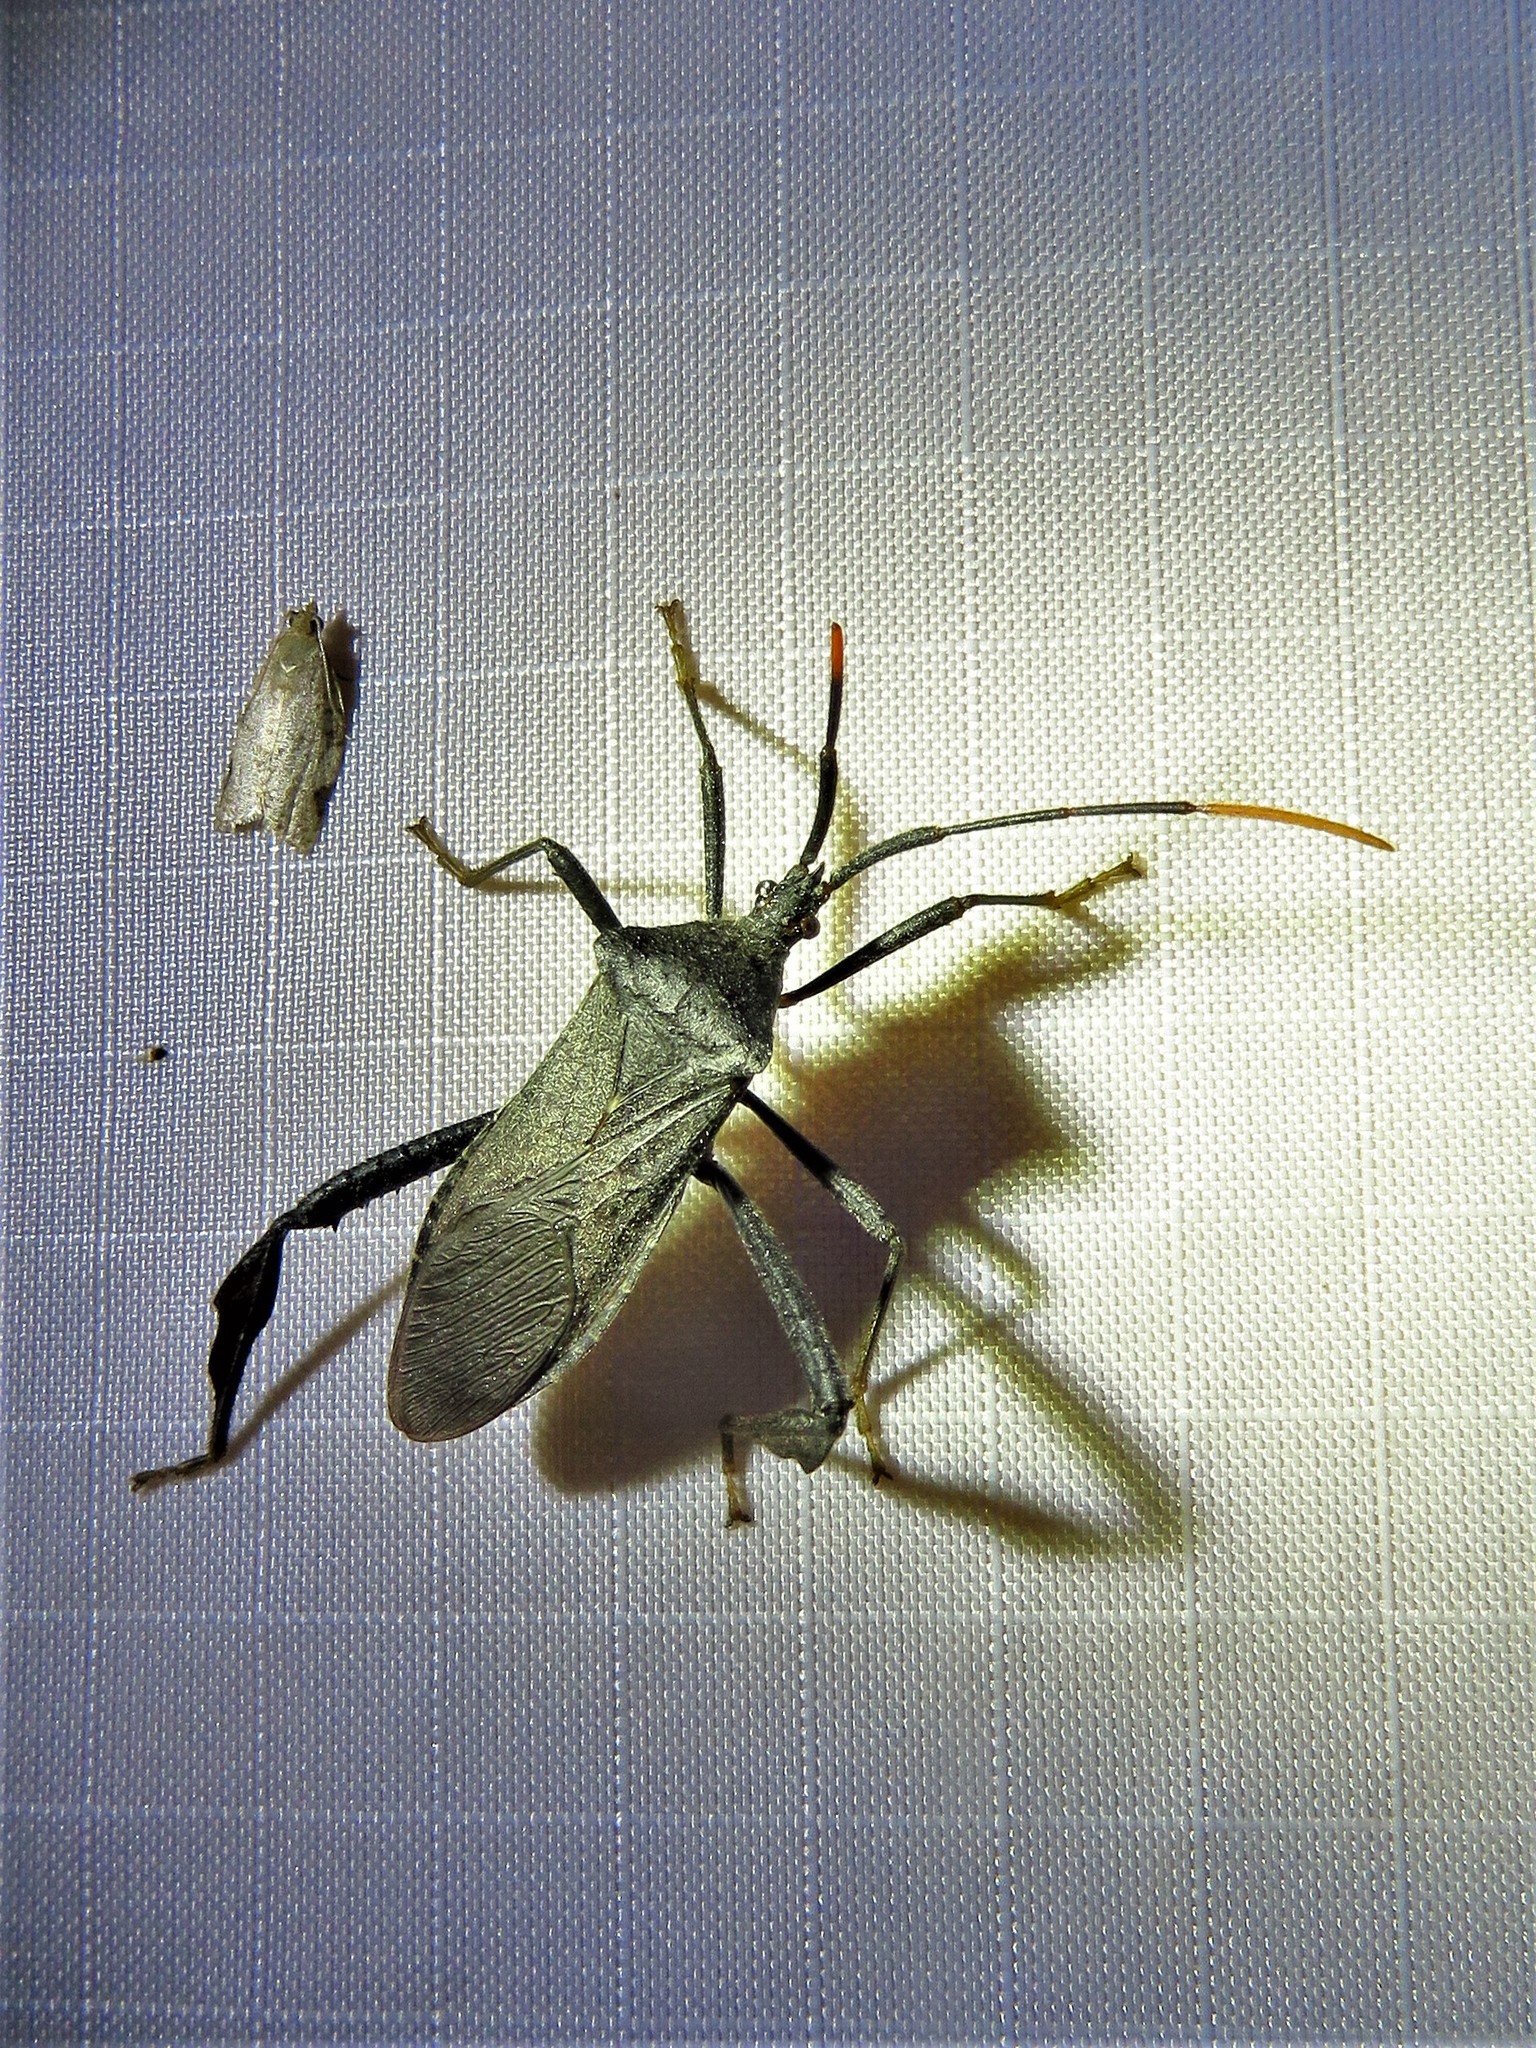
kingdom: Animalia
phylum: Arthropoda
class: Insecta
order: Hemiptera
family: Coreidae
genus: Acanthocephala
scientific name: Acanthocephala terminalis
